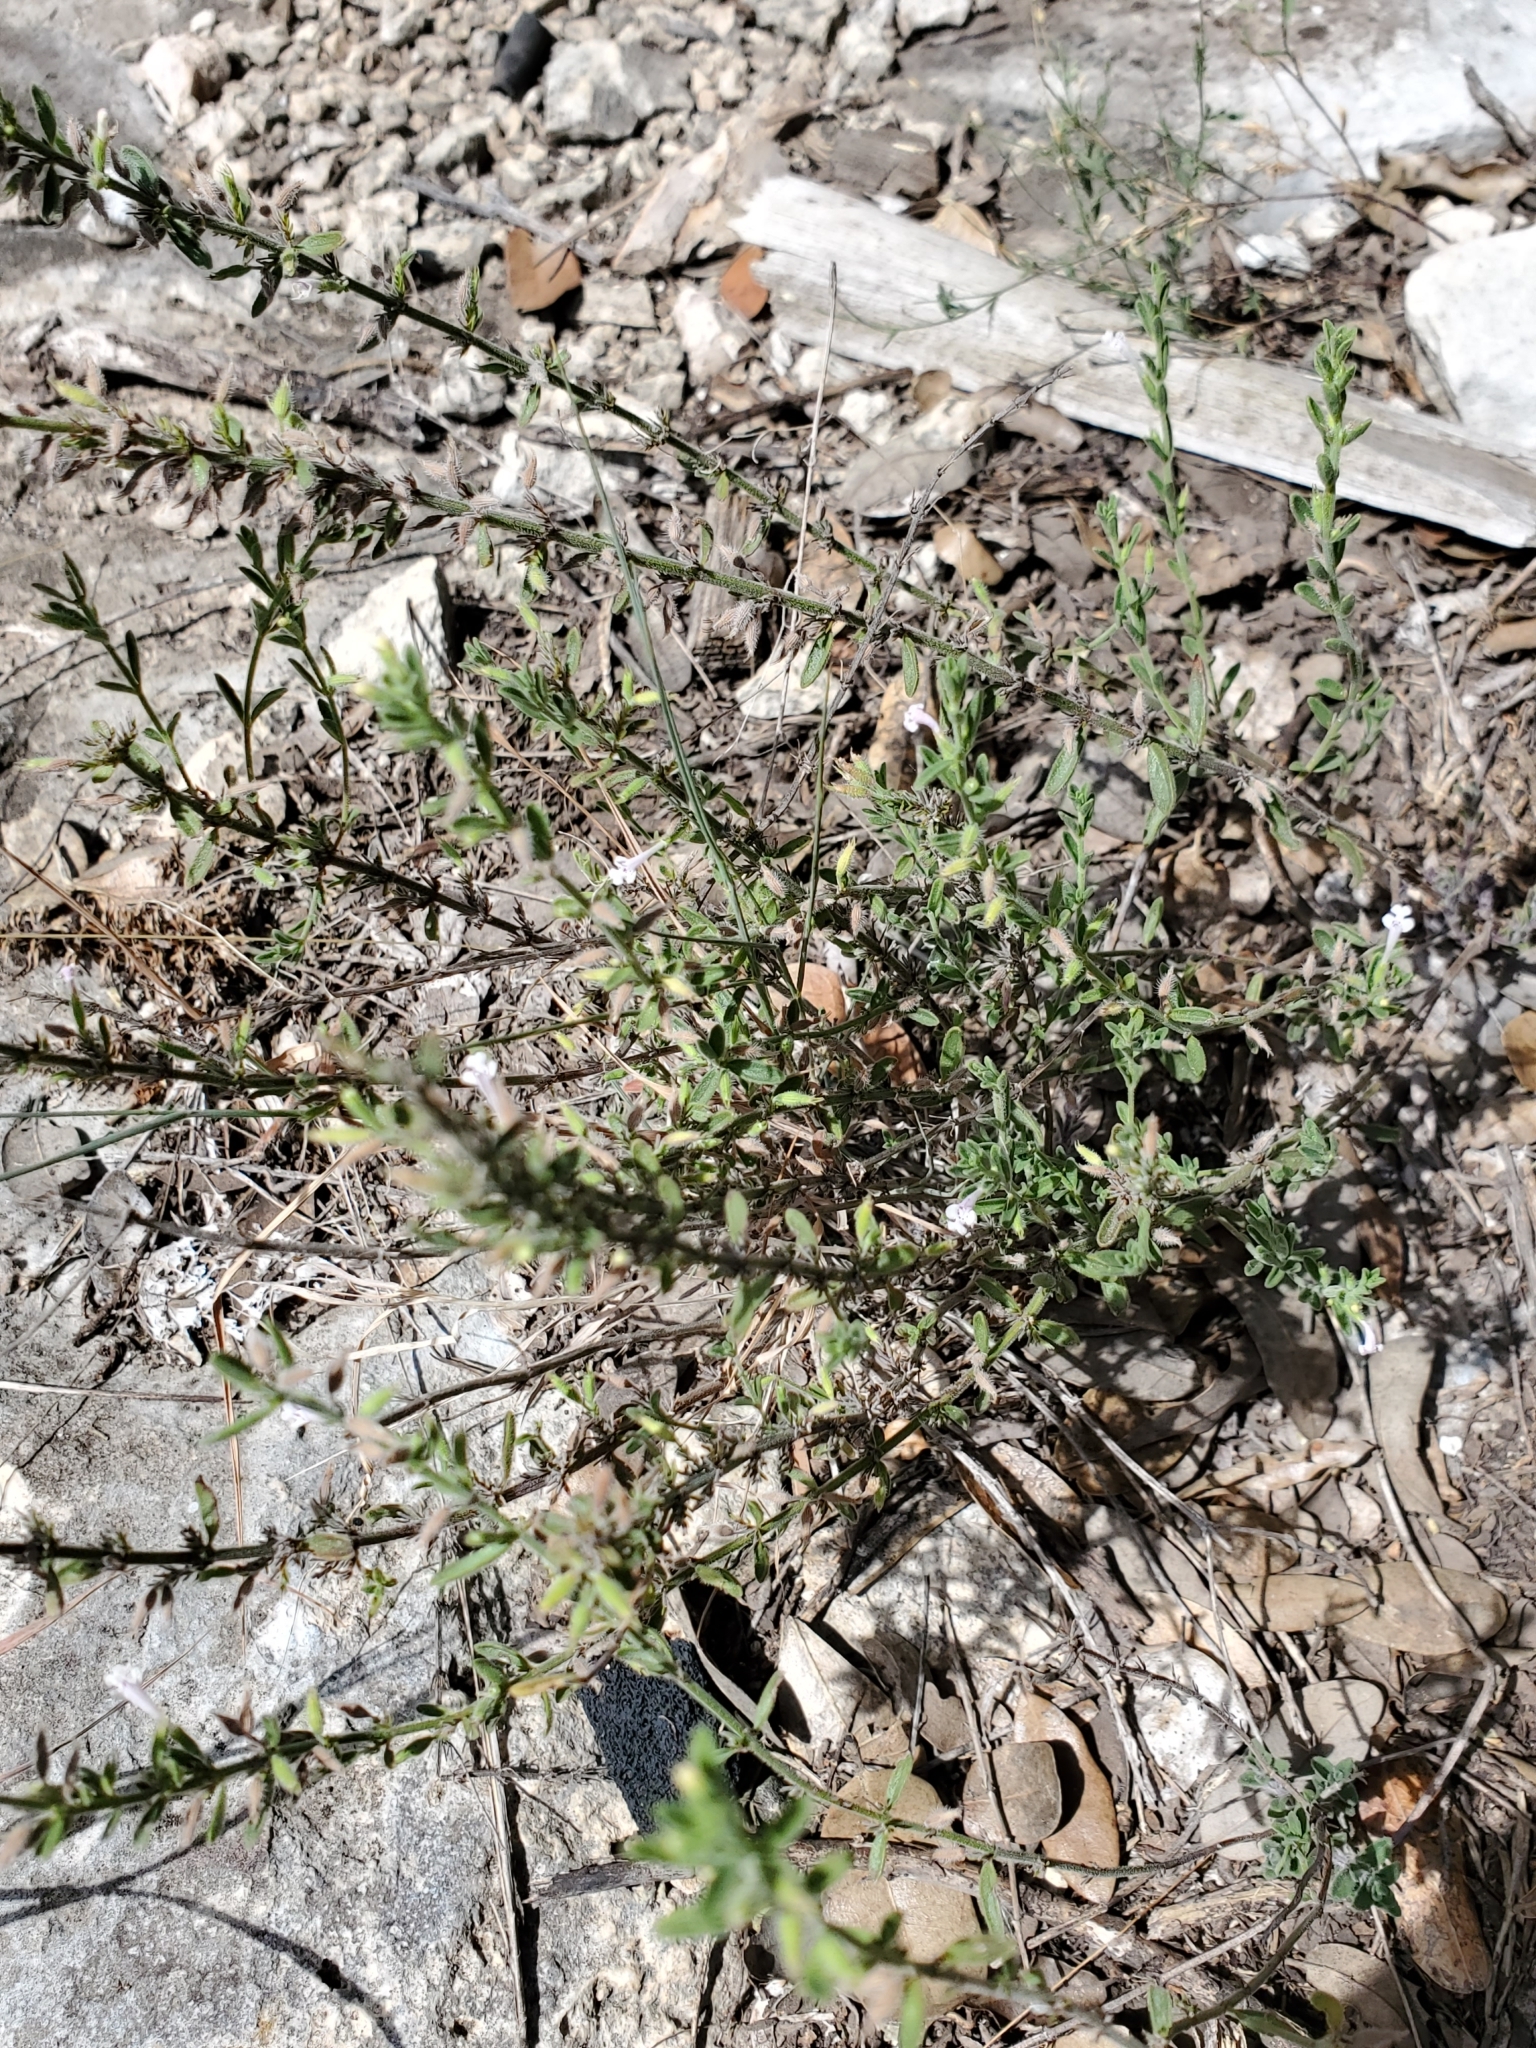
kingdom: Plantae
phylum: Tracheophyta
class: Magnoliopsida
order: Lamiales
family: Lamiaceae
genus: Hedeoma
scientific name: Hedeoma reverchonii
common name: Reverchon's false penny-royal
